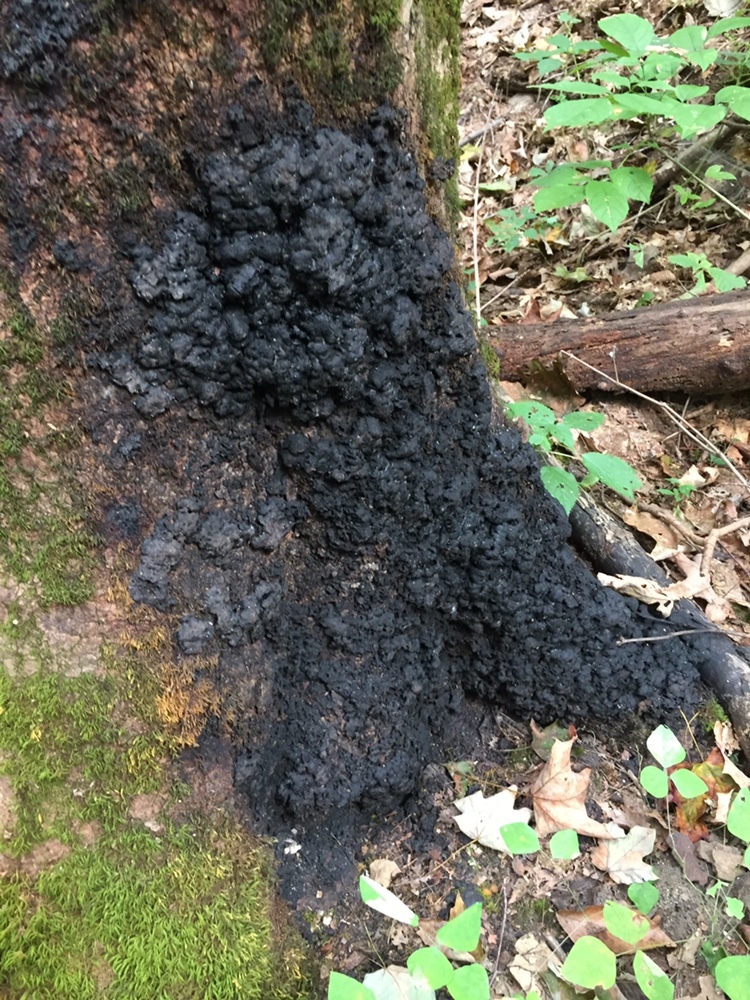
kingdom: Fungi
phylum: Ascomycota
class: Sordariomycetes
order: Xylariales
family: Xylariaceae
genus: Kretzschmaria
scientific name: Kretzschmaria deusta
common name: Brittle cinder
